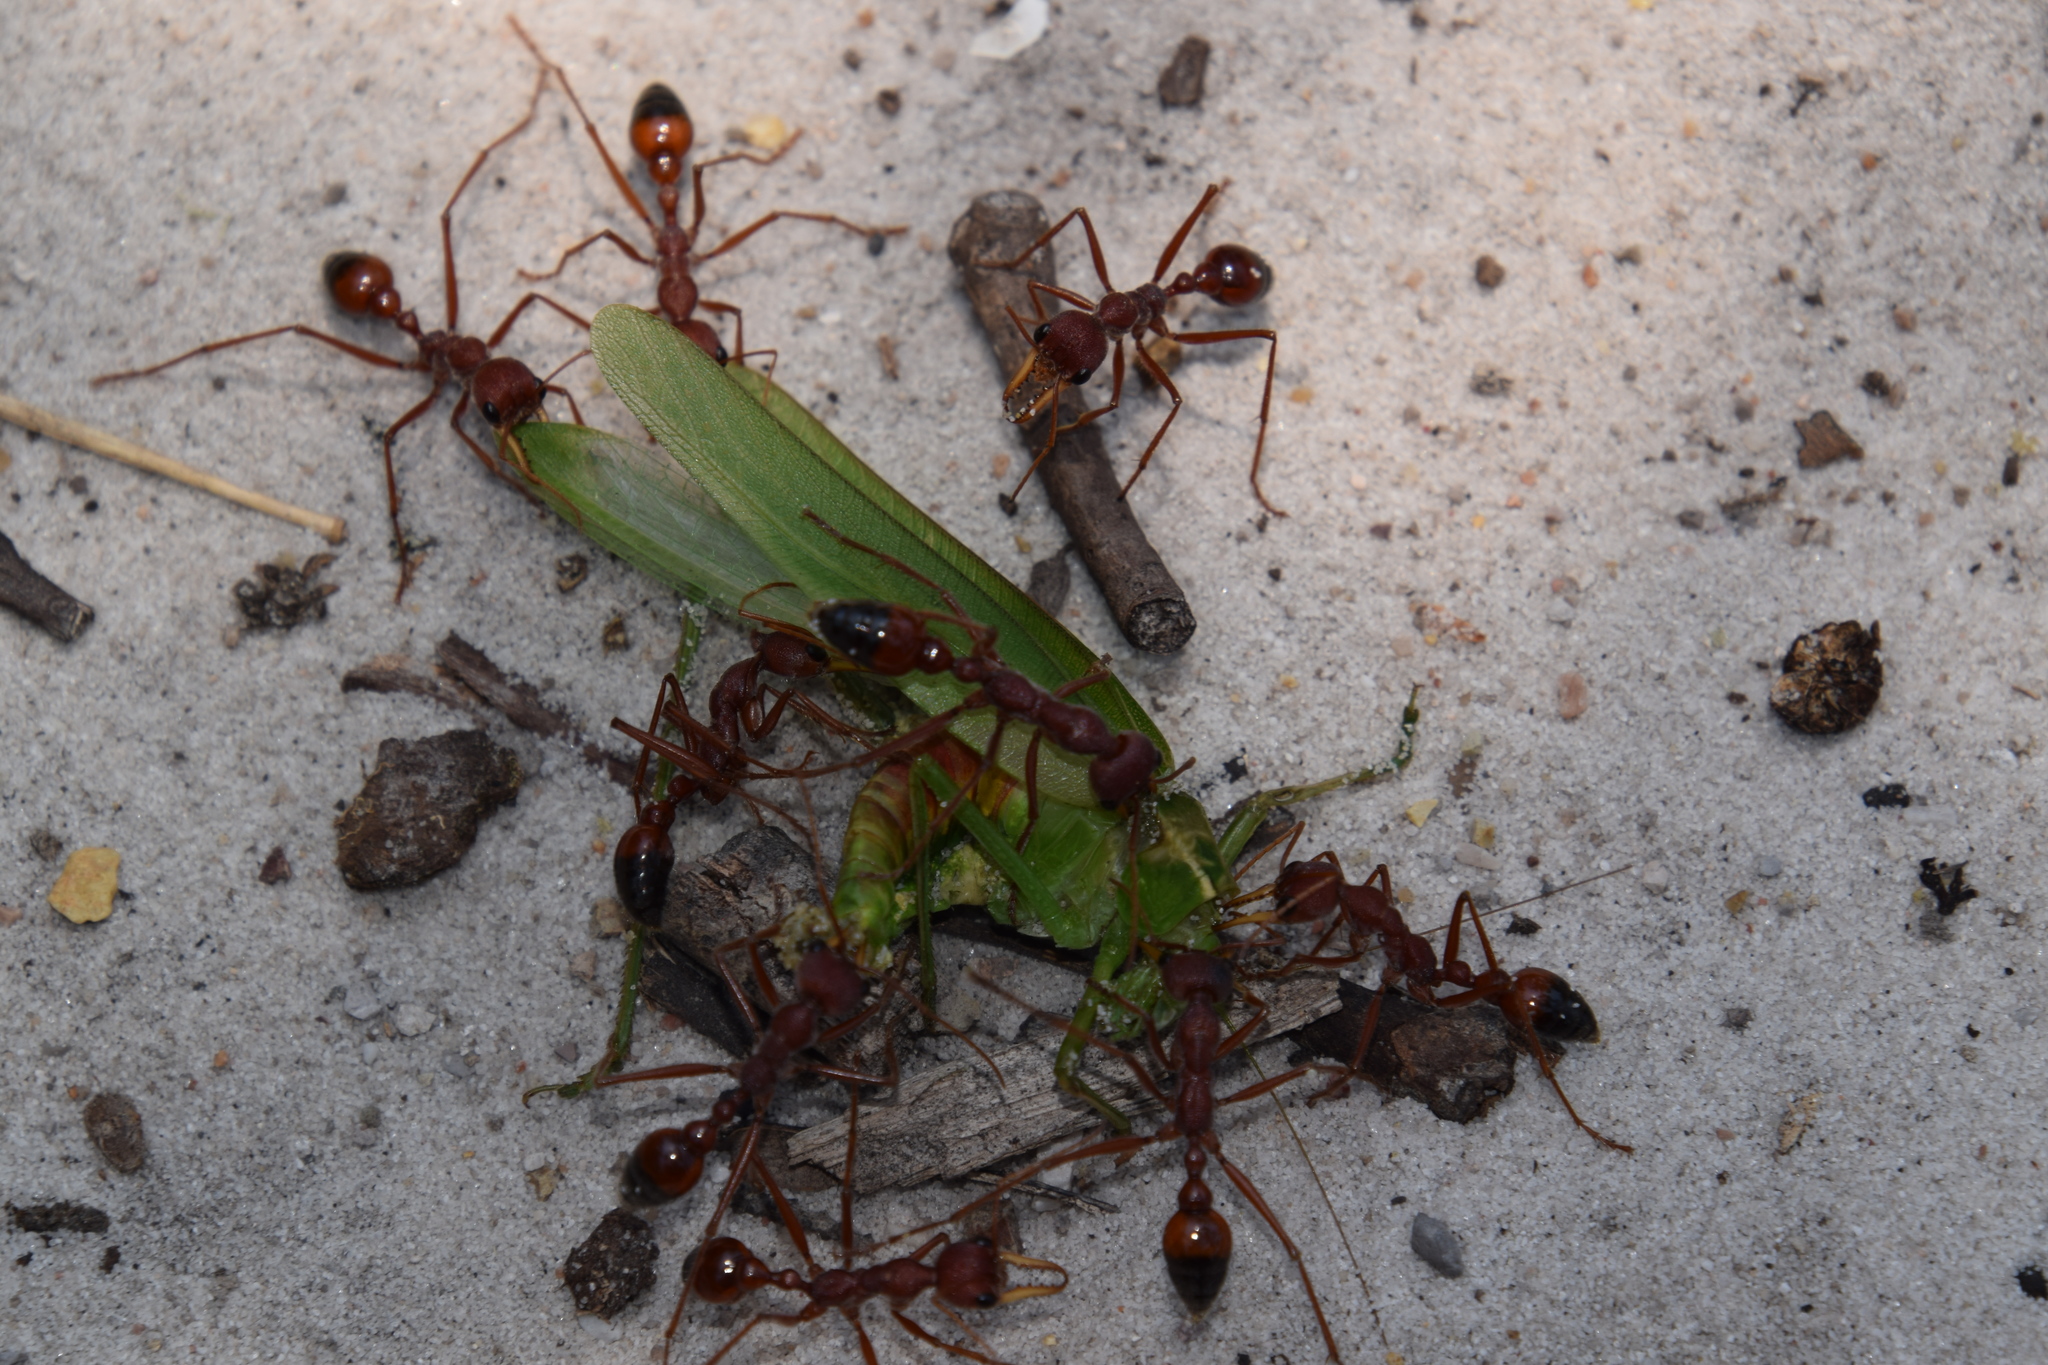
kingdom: Animalia
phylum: Arthropoda
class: Insecta
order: Hymenoptera
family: Formicidae
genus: Myrmecia
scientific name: Myrmecia gulosa
